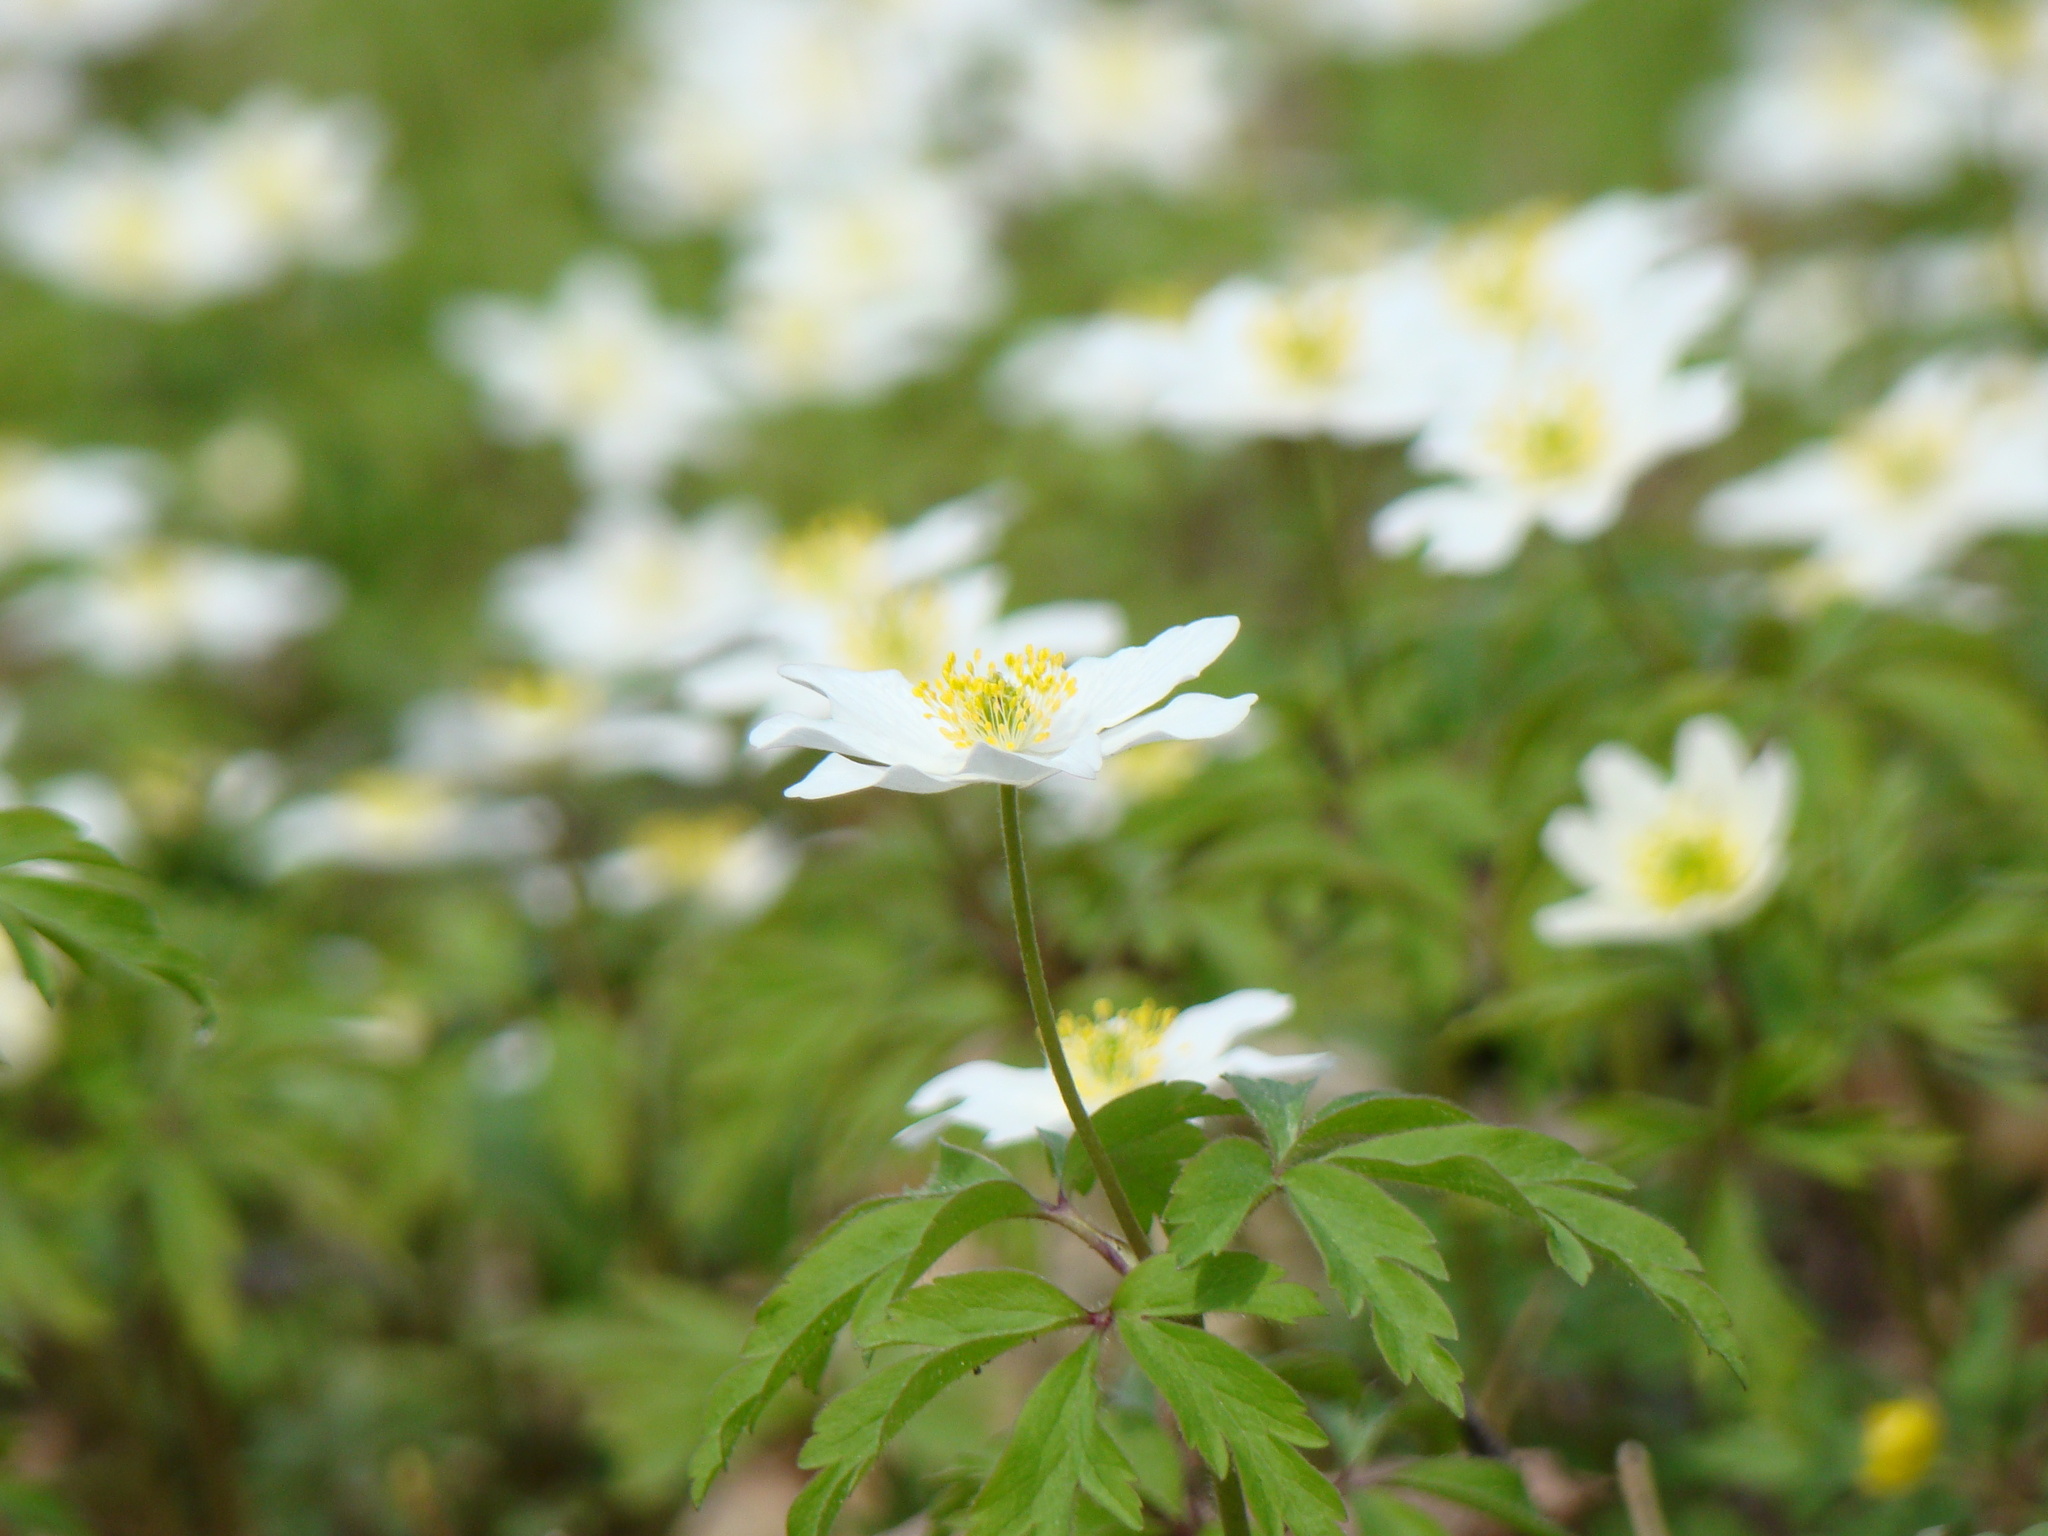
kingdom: Plantae
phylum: Tracheophyta
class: Magnoliopsida
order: Ranunculales
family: Ranunculaceae
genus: Anemone
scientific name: Anemone nemorosa
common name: Wood anemone
